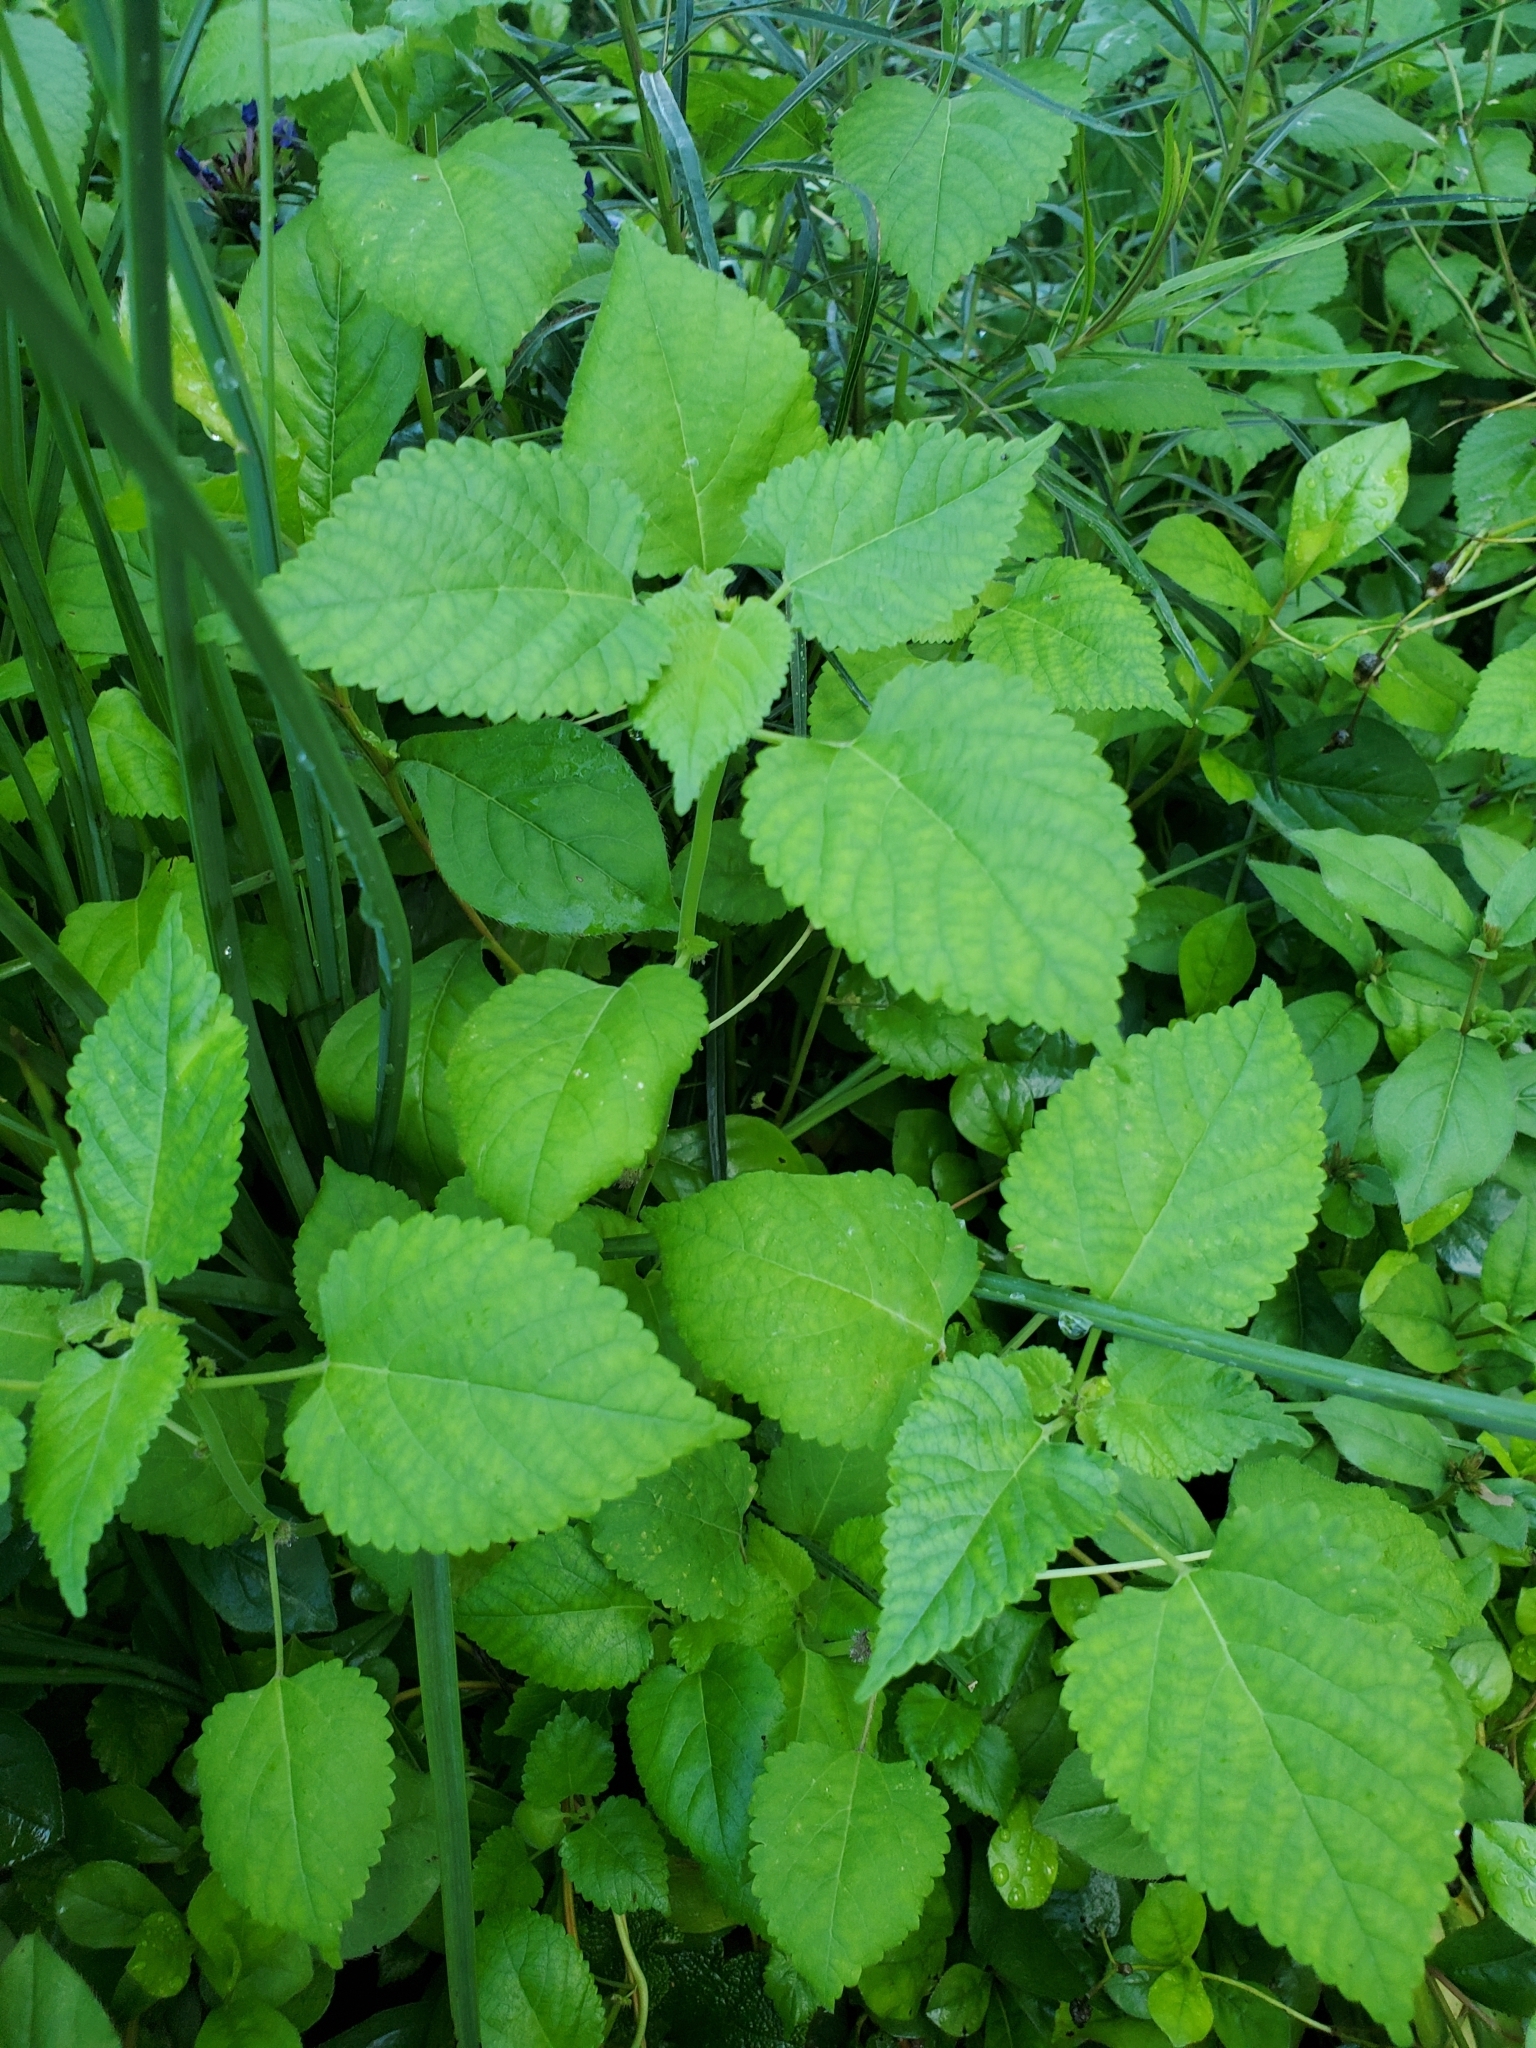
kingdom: Plantae
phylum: Tracheophyta
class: Magnoliopsida
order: Rosales
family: Moraceae
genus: Fatoua
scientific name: Fatoua villosa
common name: Hairy crabweed
